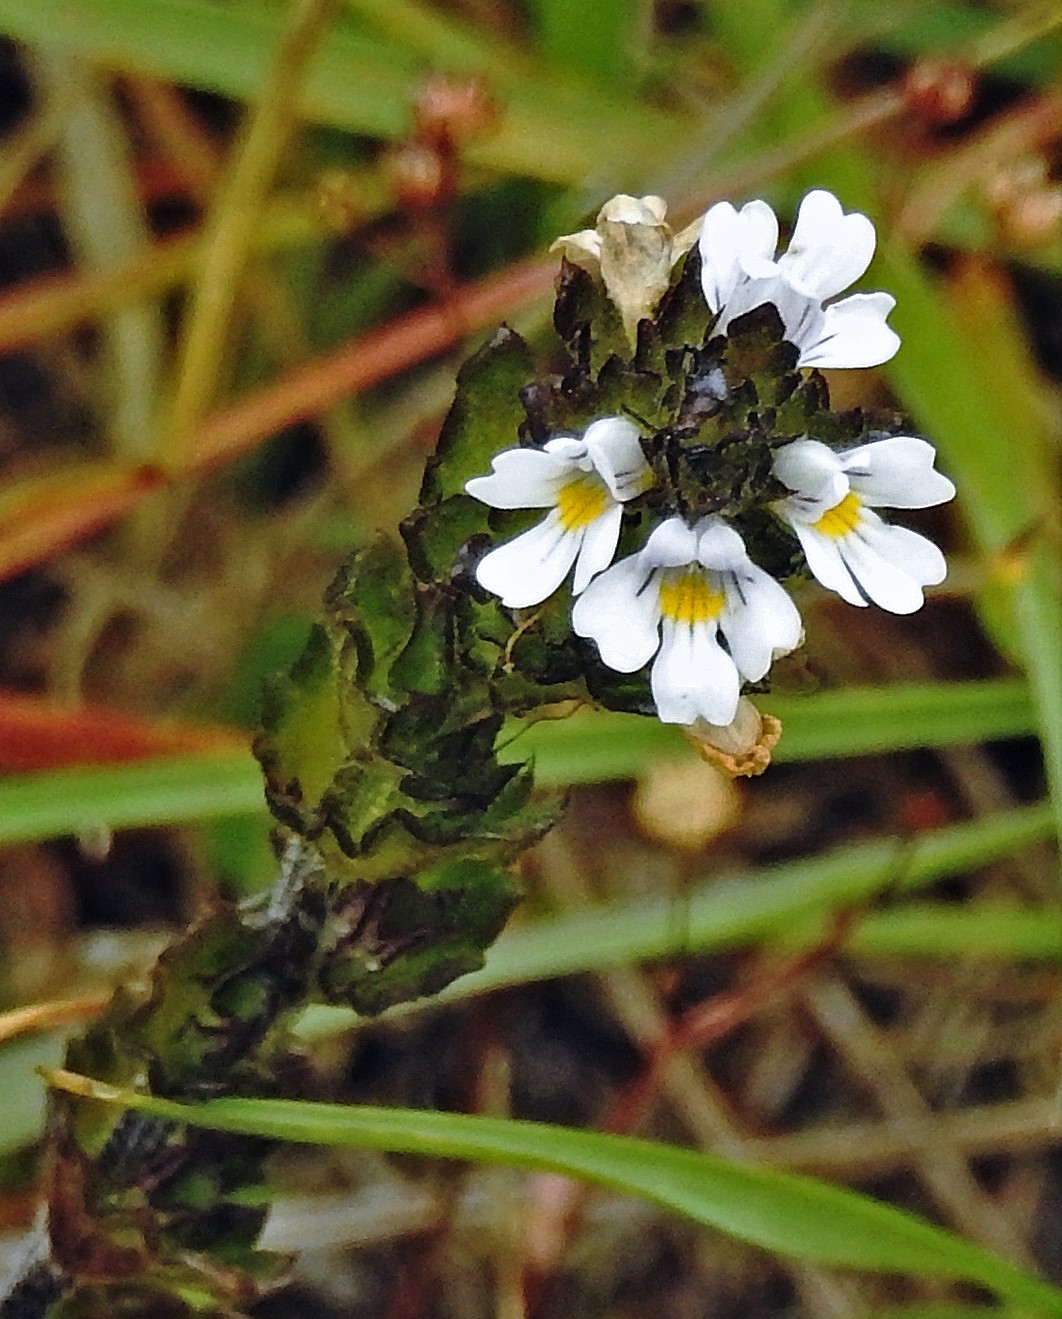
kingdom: Plantae
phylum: Tracheophyta
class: Magnoliopsida
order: Lamiales
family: Orobanchaceae
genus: Euphrasia
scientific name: Euphrasia officinalis
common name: Eyebright
